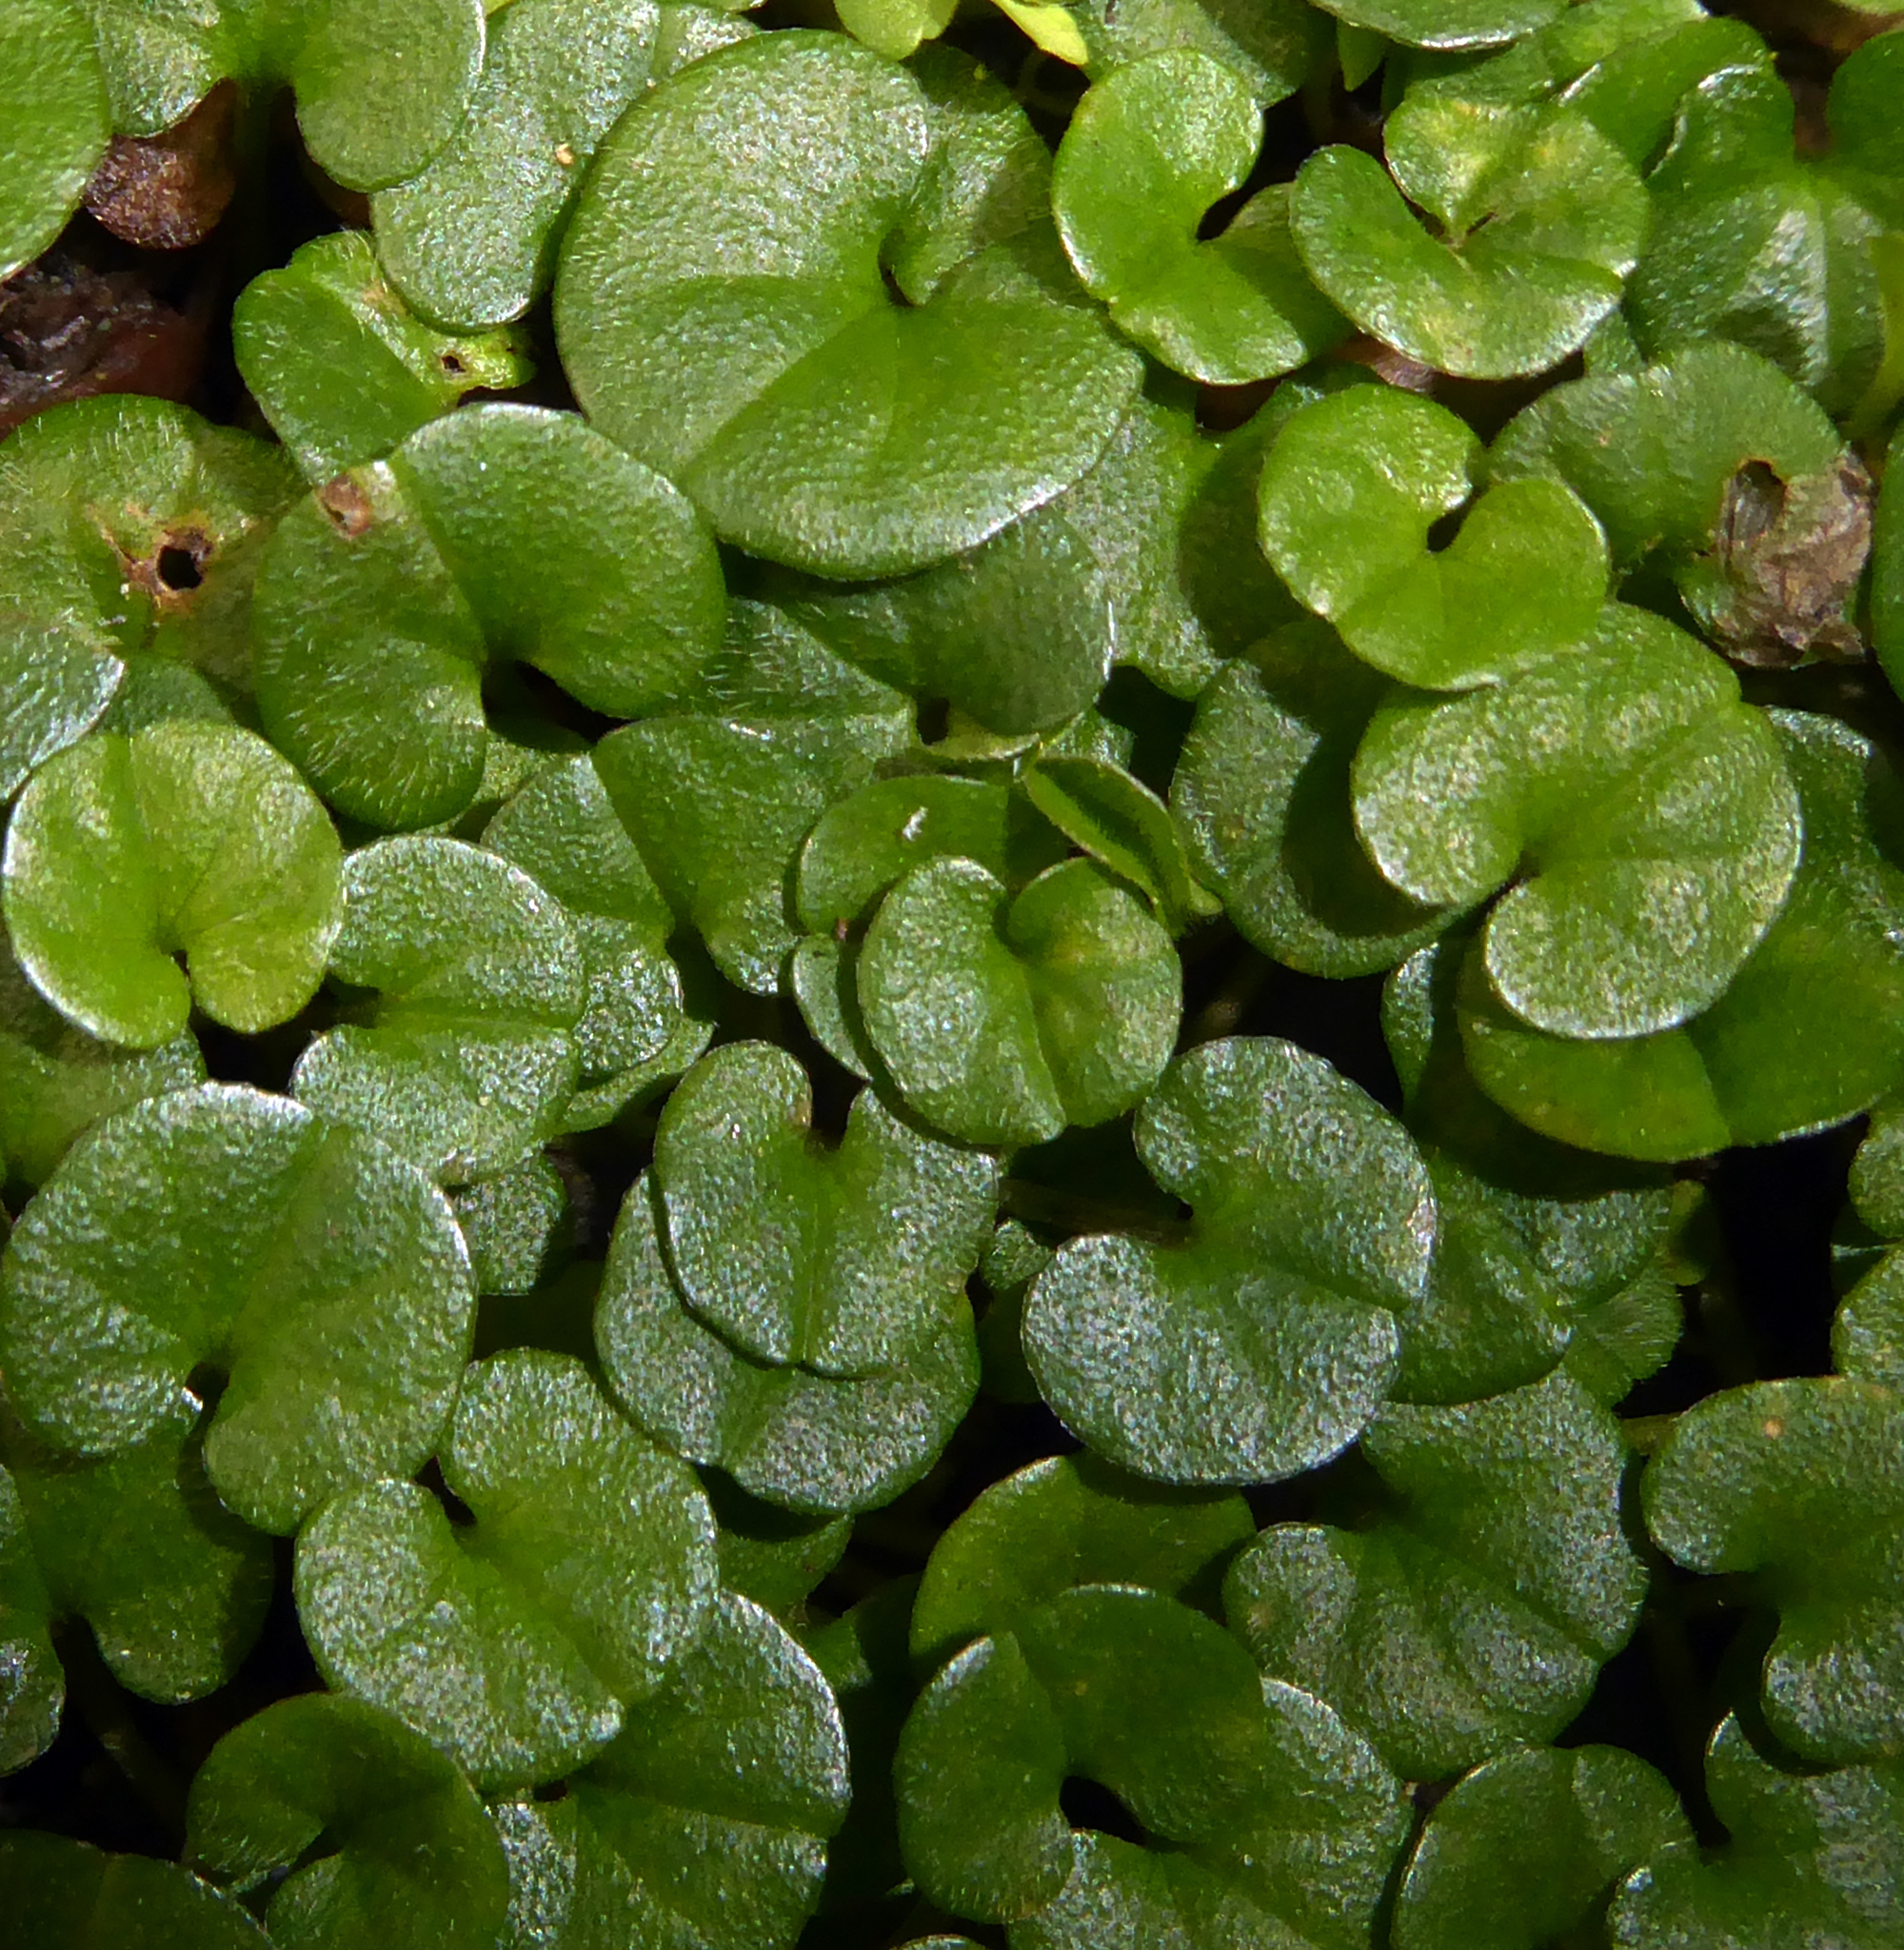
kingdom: Plantae
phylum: Tracheophyta
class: Magnoliopsida
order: Solanales
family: Convolvulaceae
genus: Dichondra
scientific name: Dichondra repens
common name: Kidneyweed
